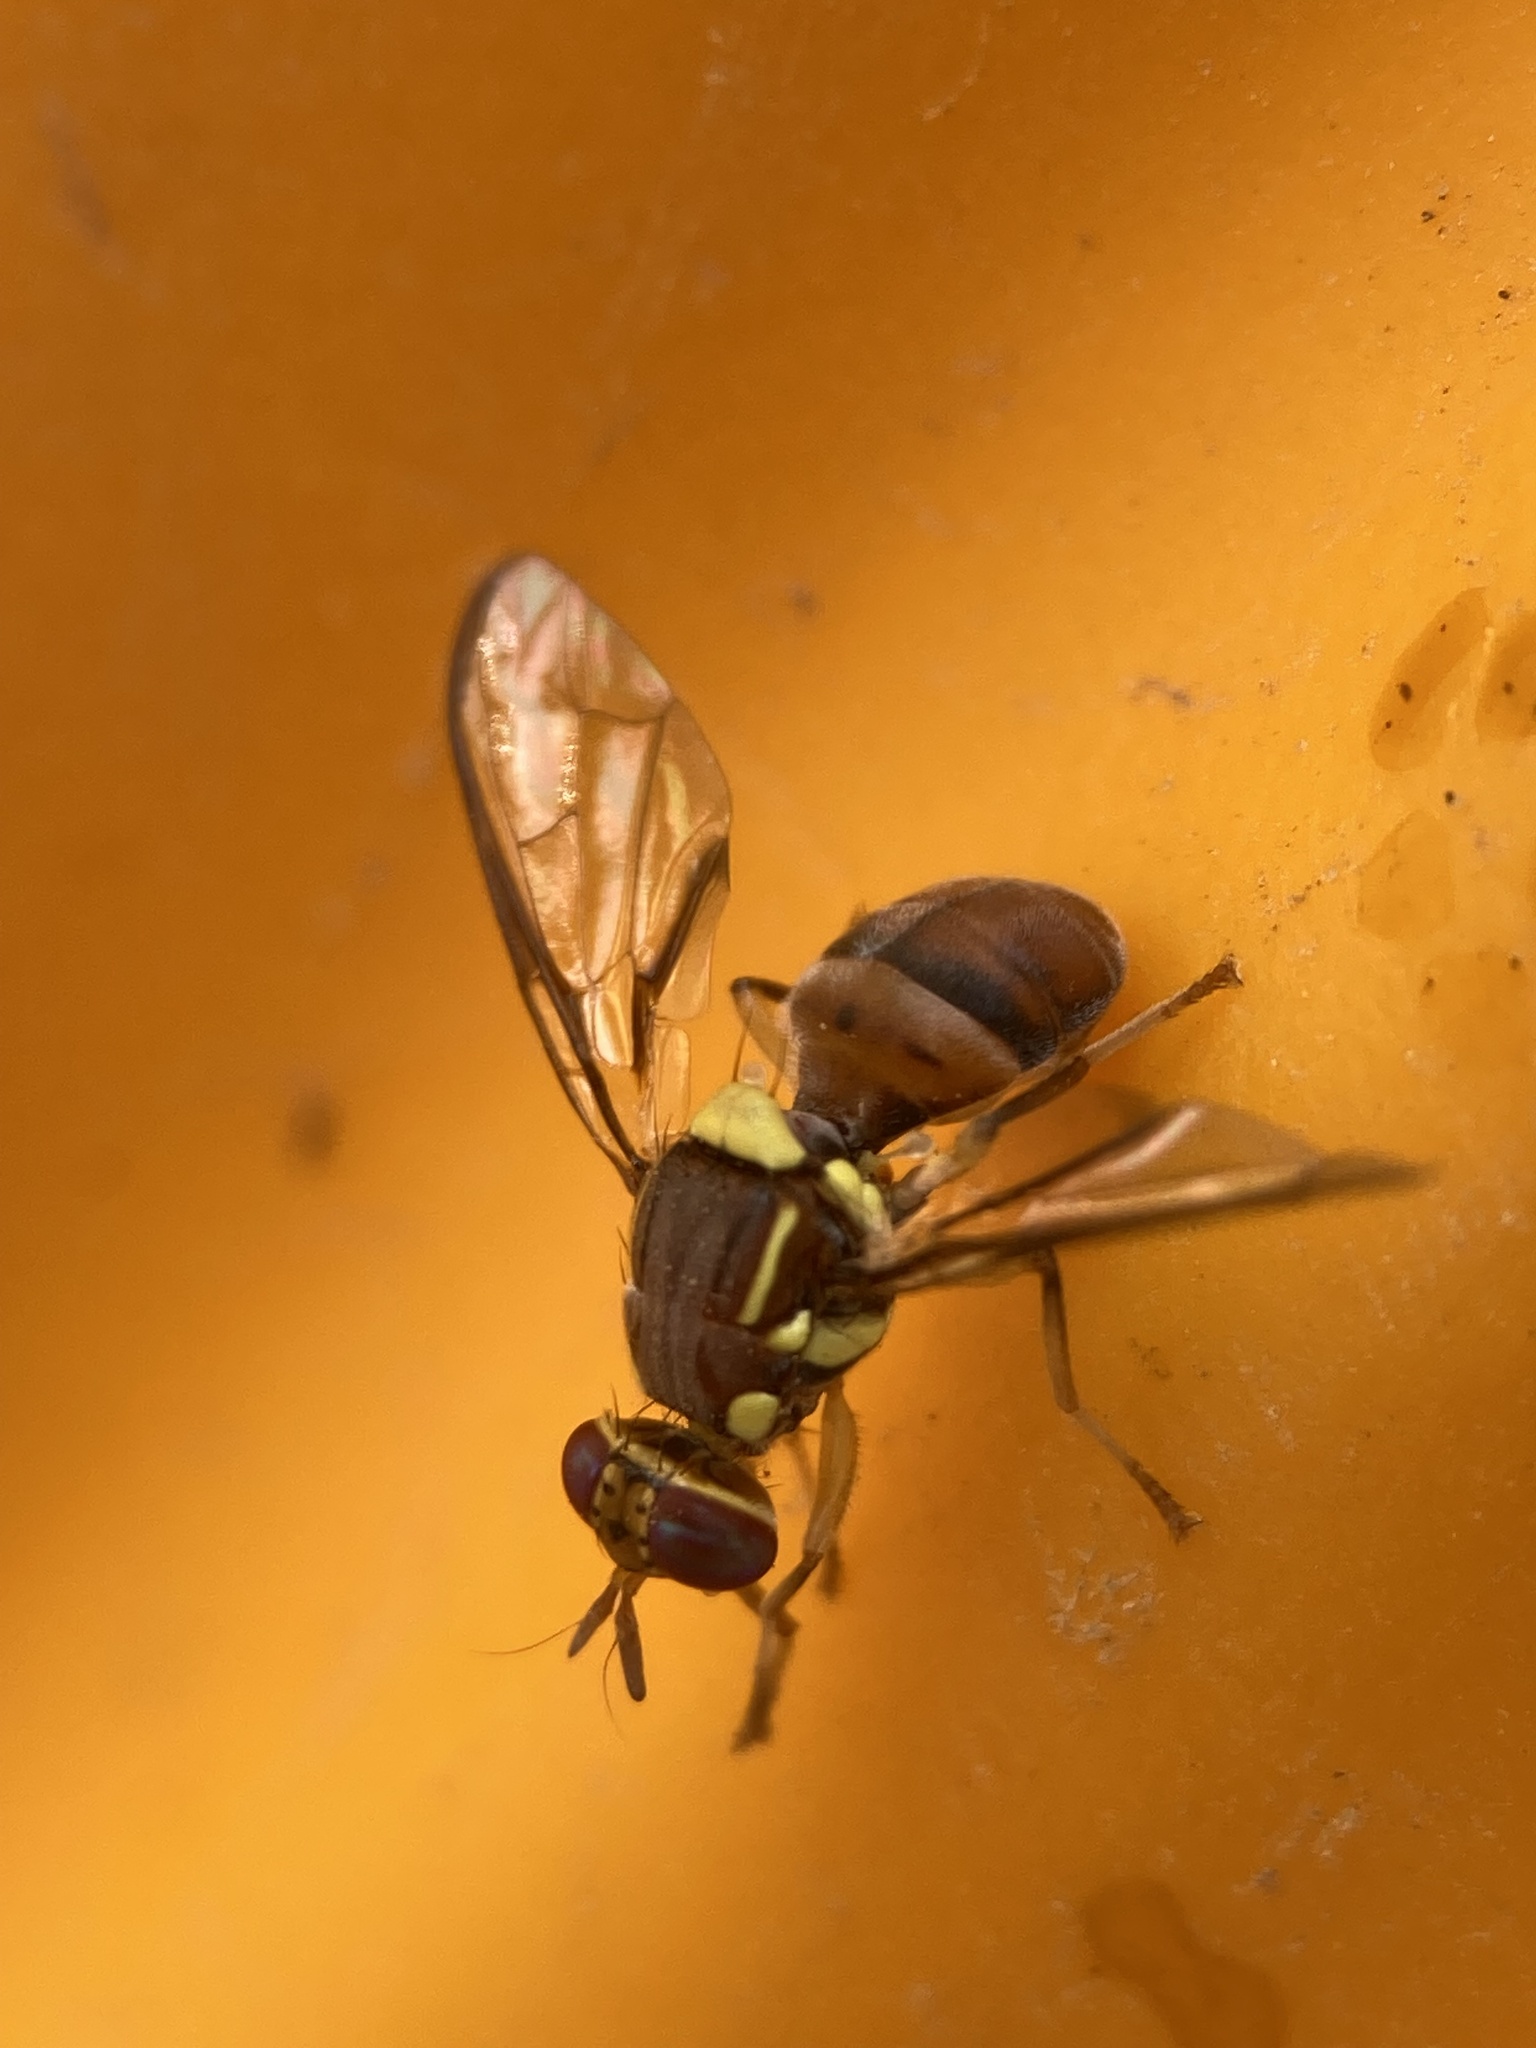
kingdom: Animalia
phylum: Arthropoda
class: Insecta
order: Diptera
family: Tephritidae
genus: Bactrocera
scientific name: Bactrocera dorsalis
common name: Oriental fruit fly
